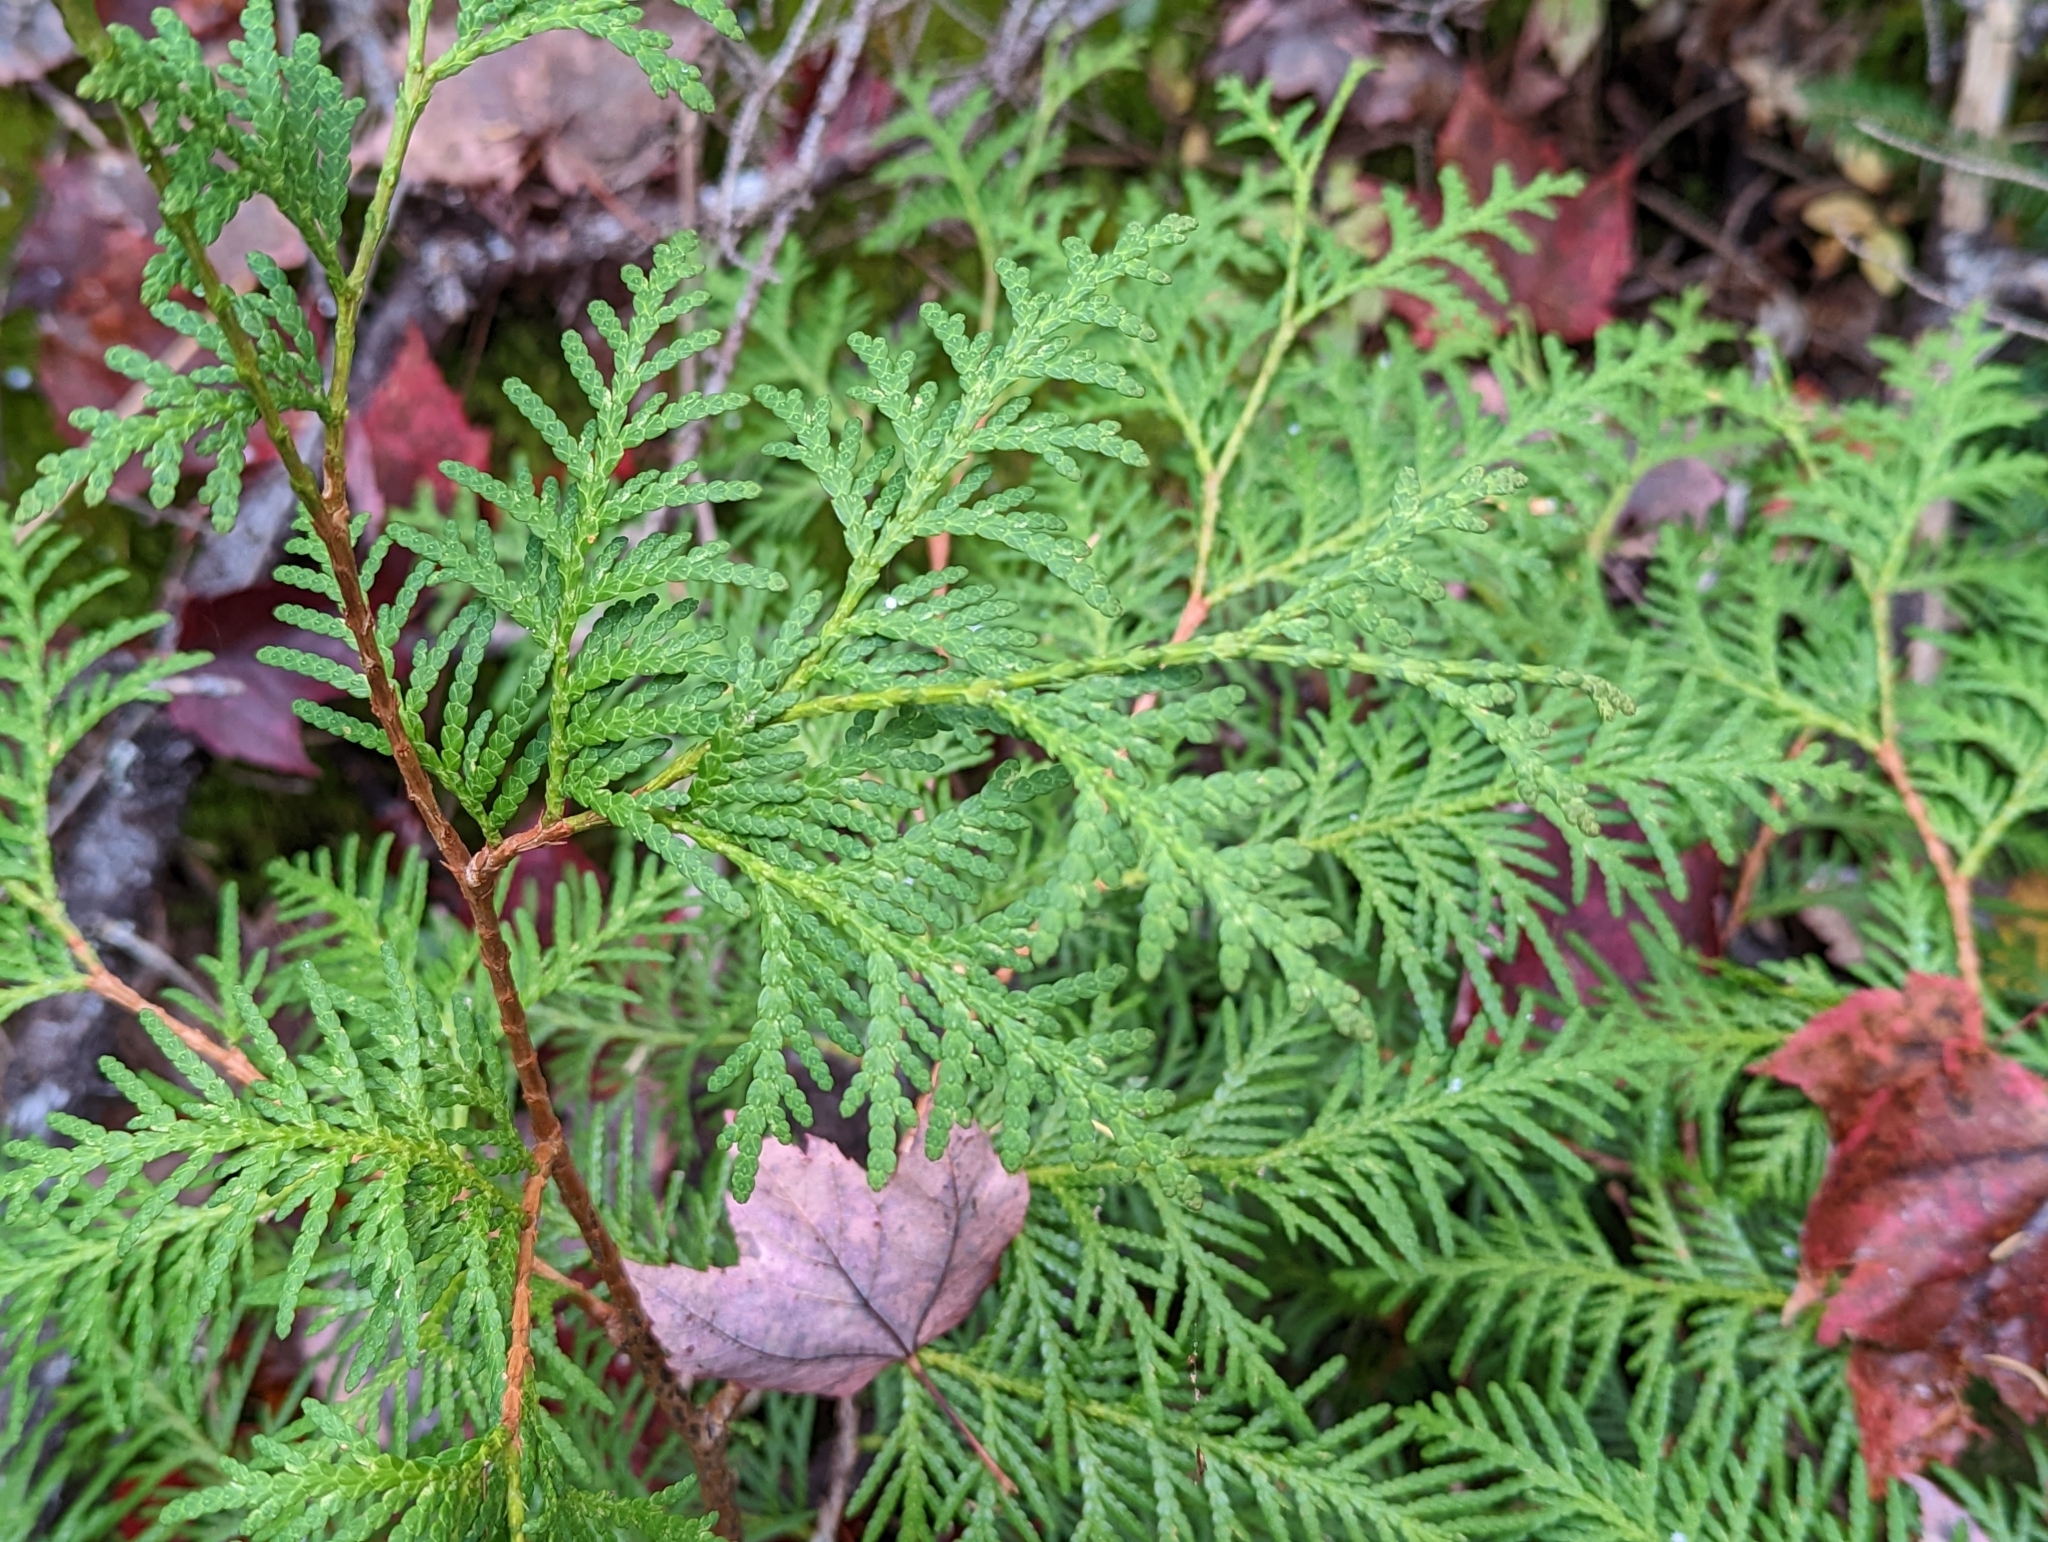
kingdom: Plantae
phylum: Tracheophyta
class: Pinopsida
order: Pinales
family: Cupressaceae
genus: Thuja
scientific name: Thuja occidentalis
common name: Northern white-cedar
